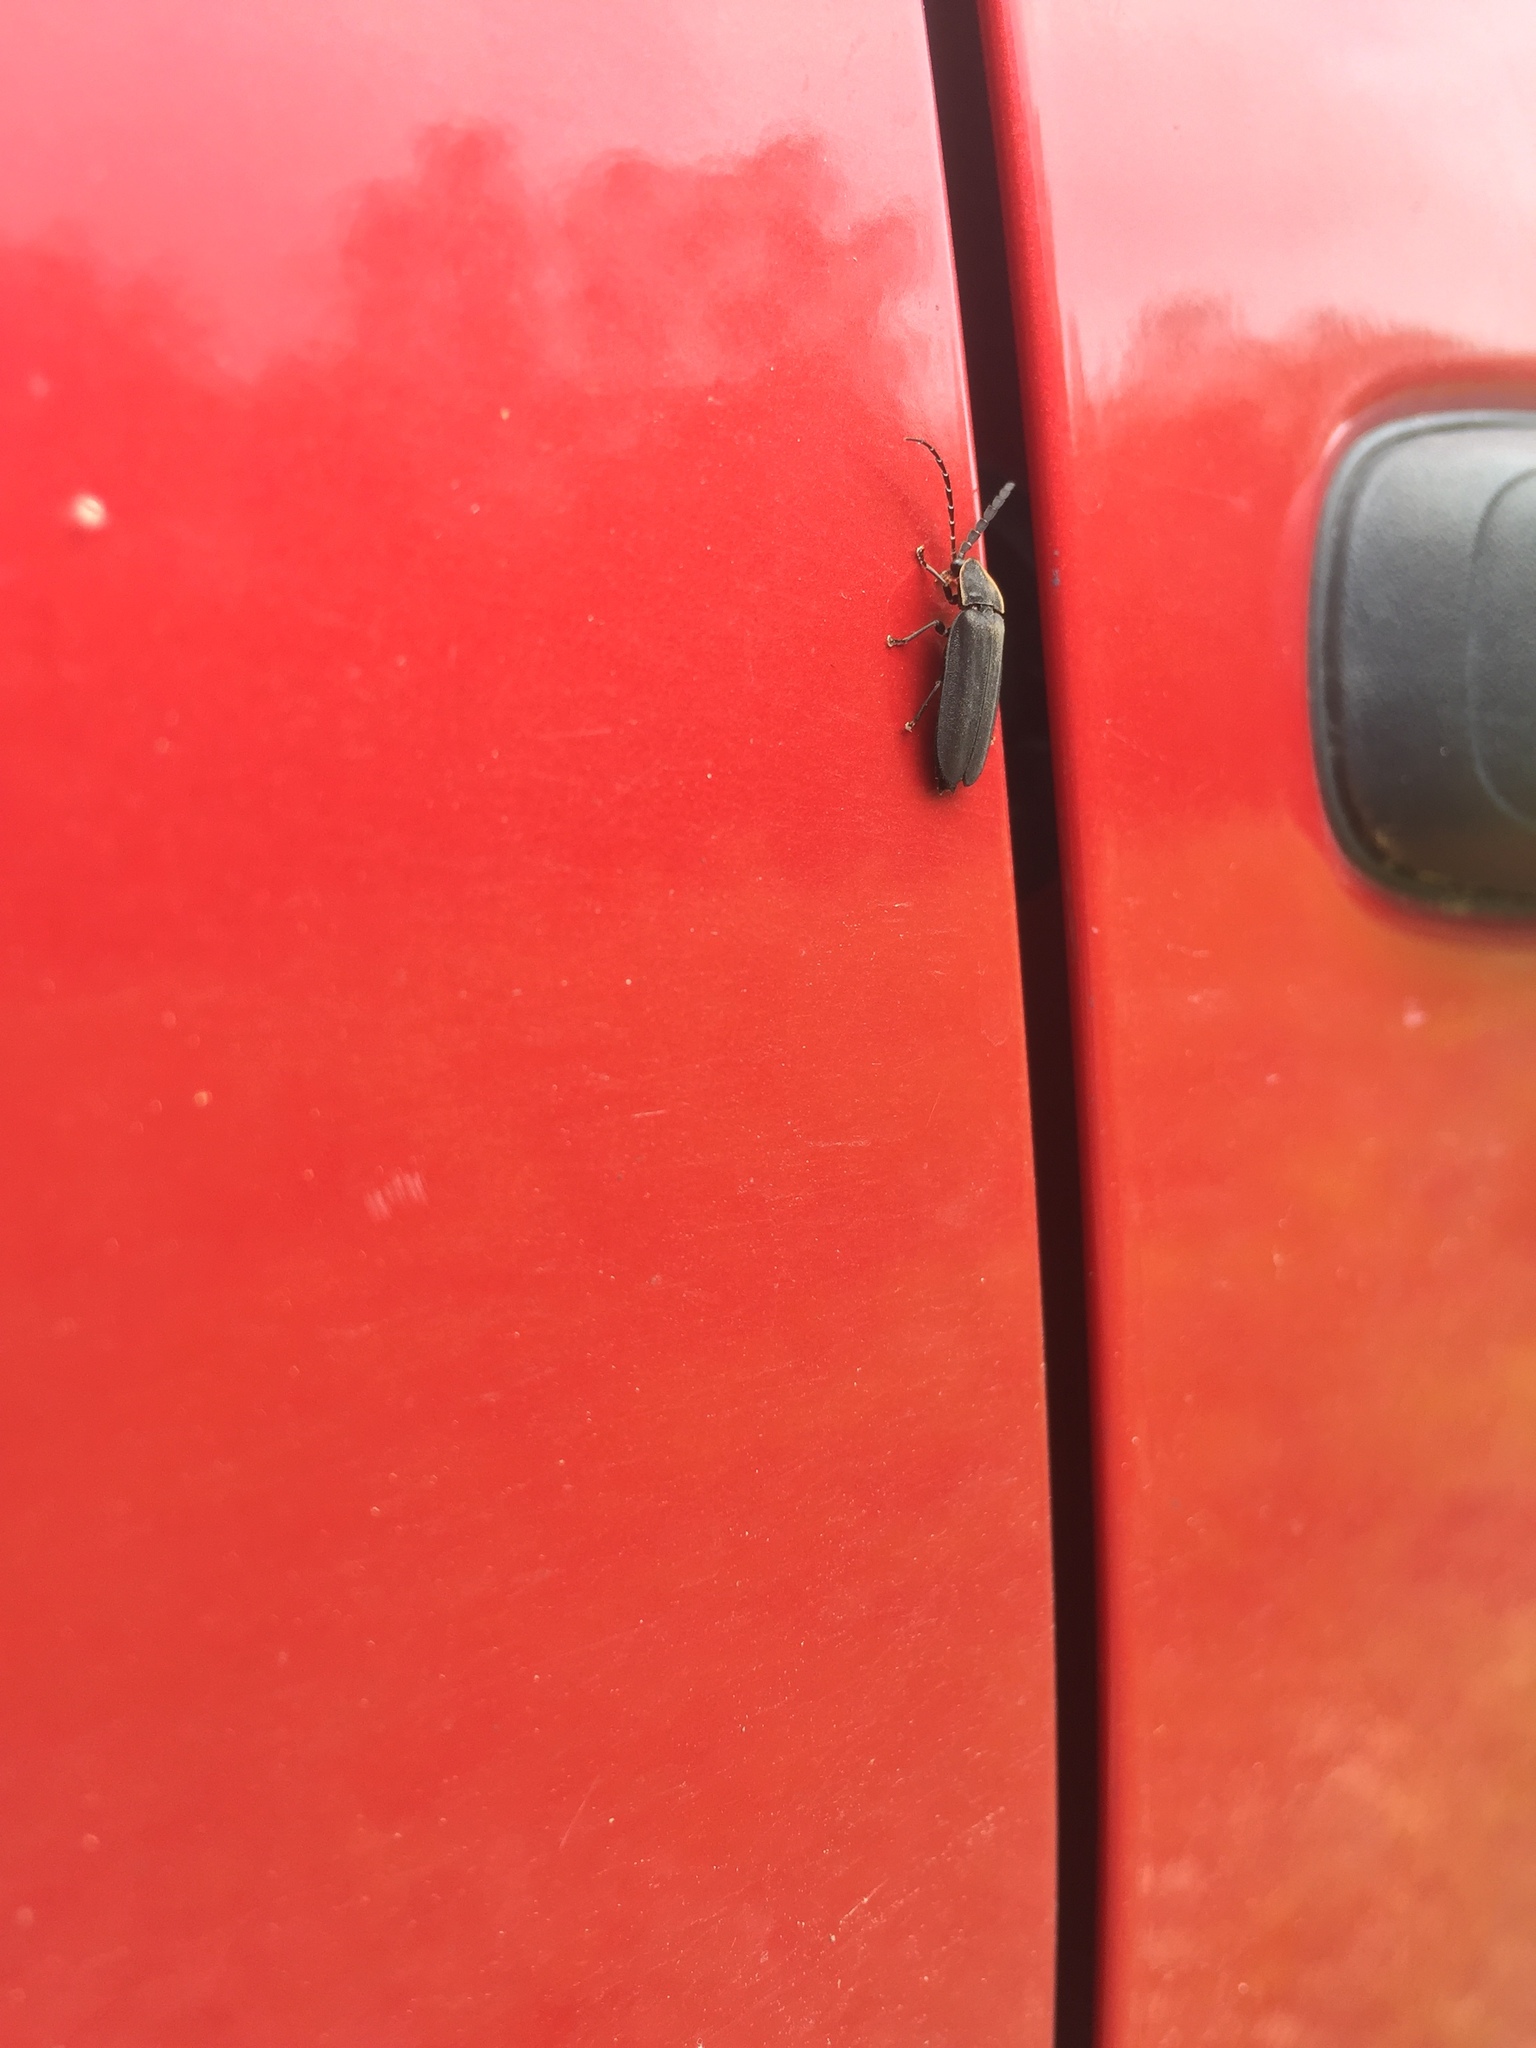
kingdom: Animalia
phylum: Arthropoda
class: Insecta
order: Coleoptera
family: Lampyridae
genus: Lucidota
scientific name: Lucidota atra
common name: Black firefly
